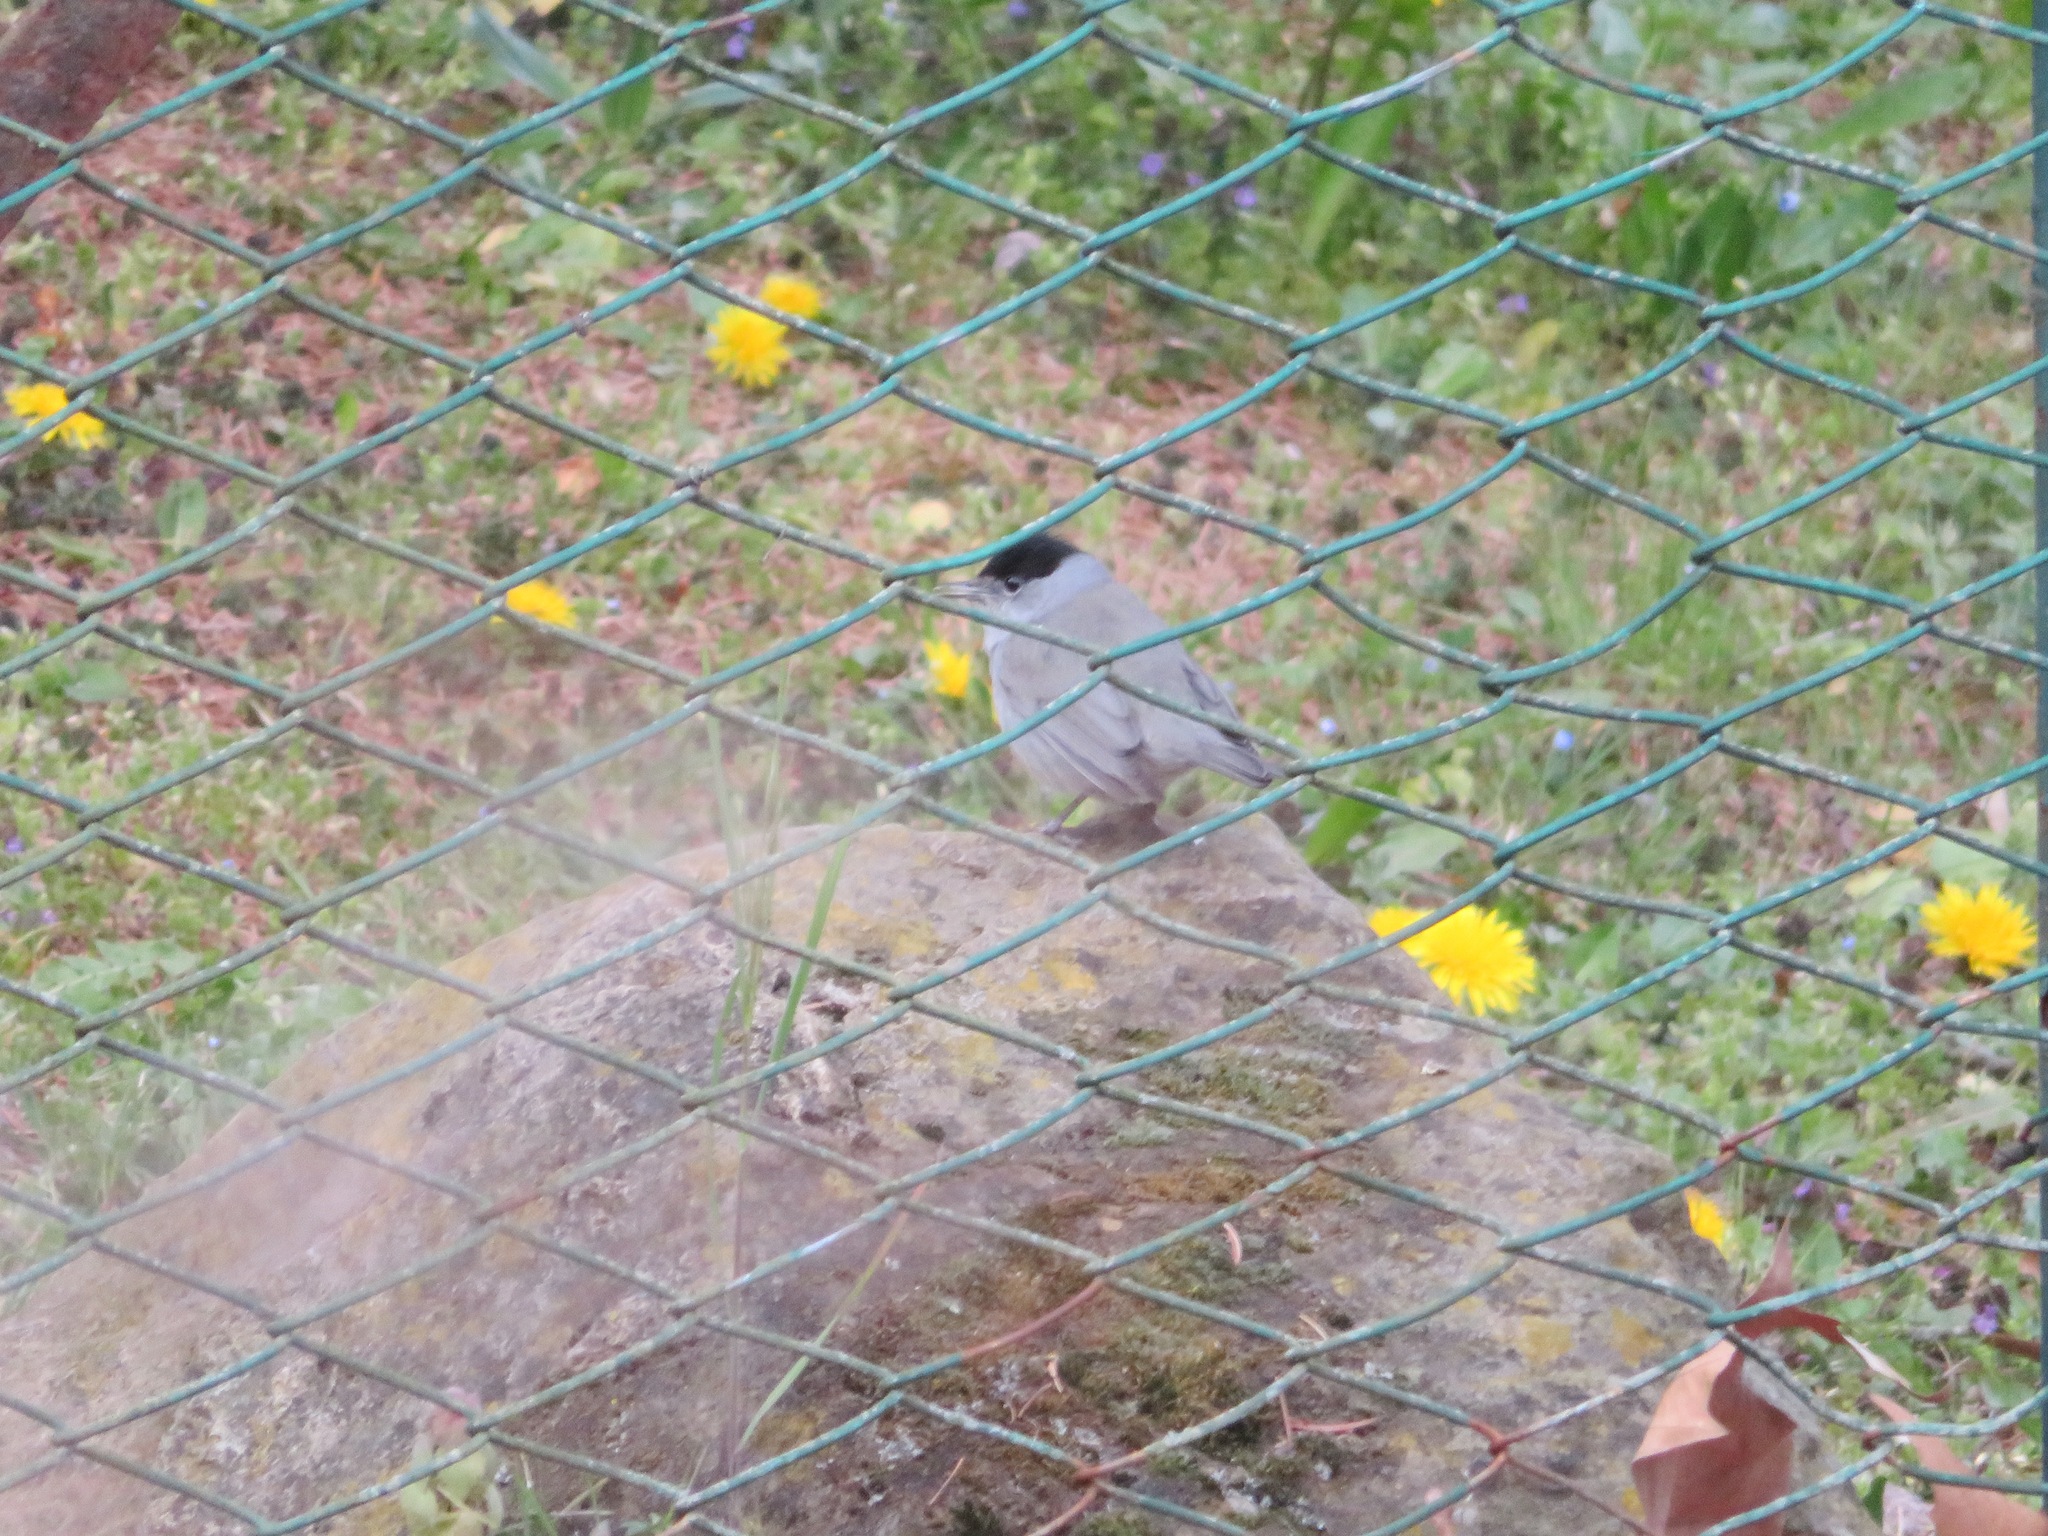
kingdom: Animalia
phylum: Chordata
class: Aves
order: Passeriformes
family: Sylviidae
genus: Sylvia
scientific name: Sylvia atricapilla
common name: Eurasian blackcap
